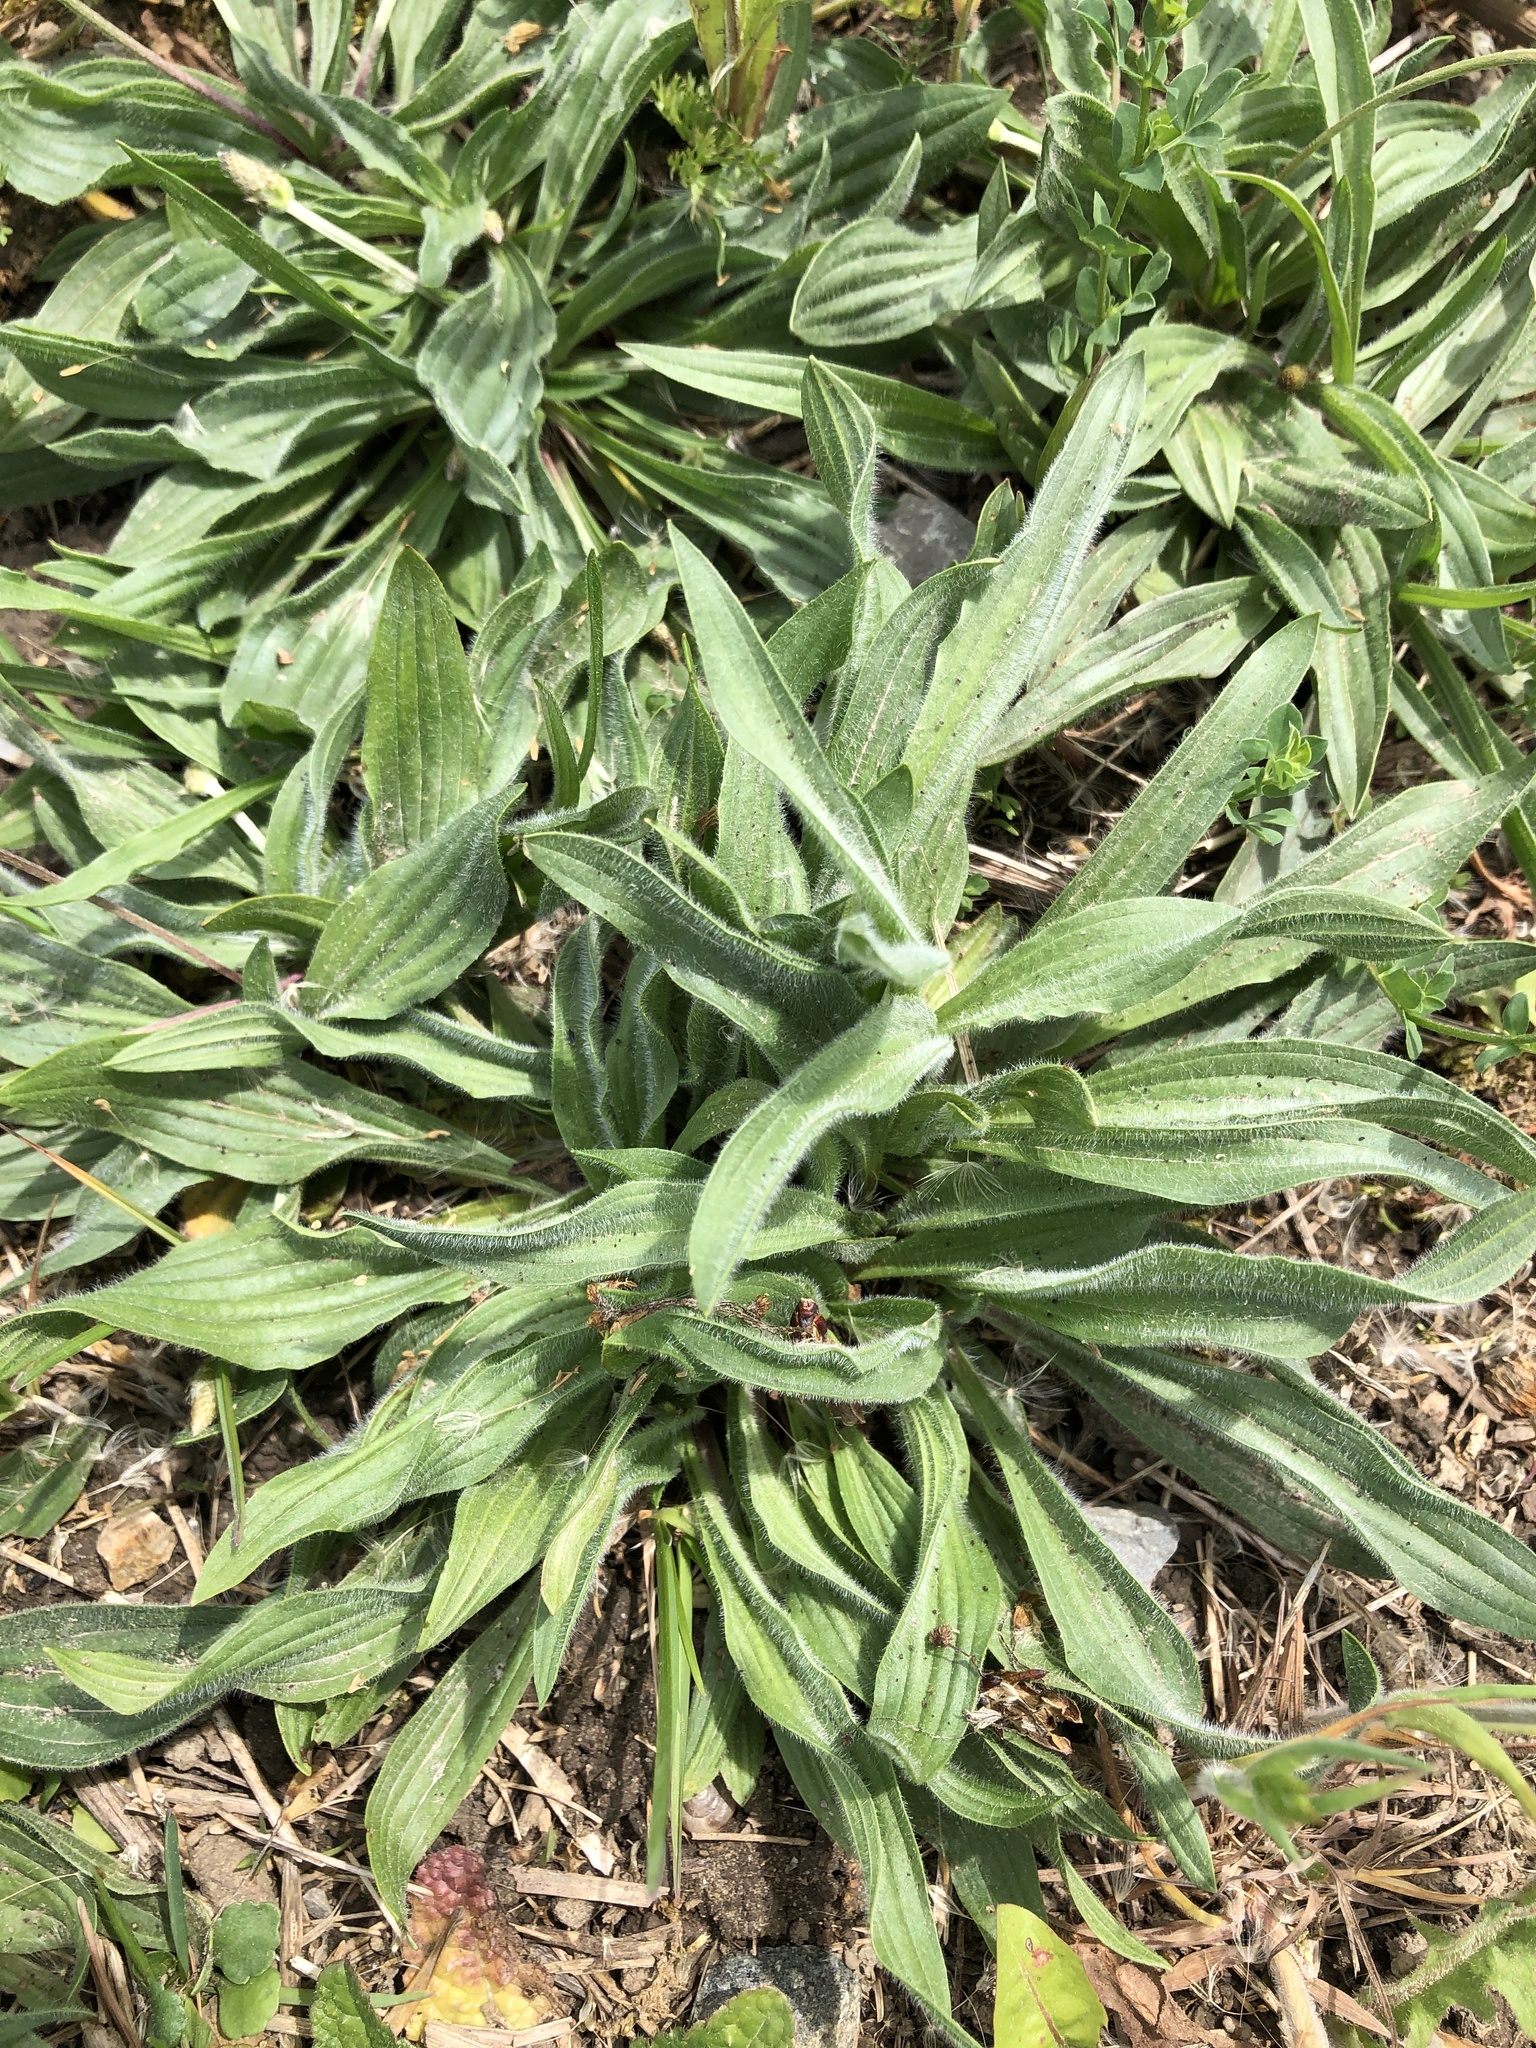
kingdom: Plantae
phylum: Tracheophyta
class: Magnoliopsida
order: Lamiales
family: Plantaginaceae
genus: Plantago
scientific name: Plantago lanceolata
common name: Ribwort plantain
